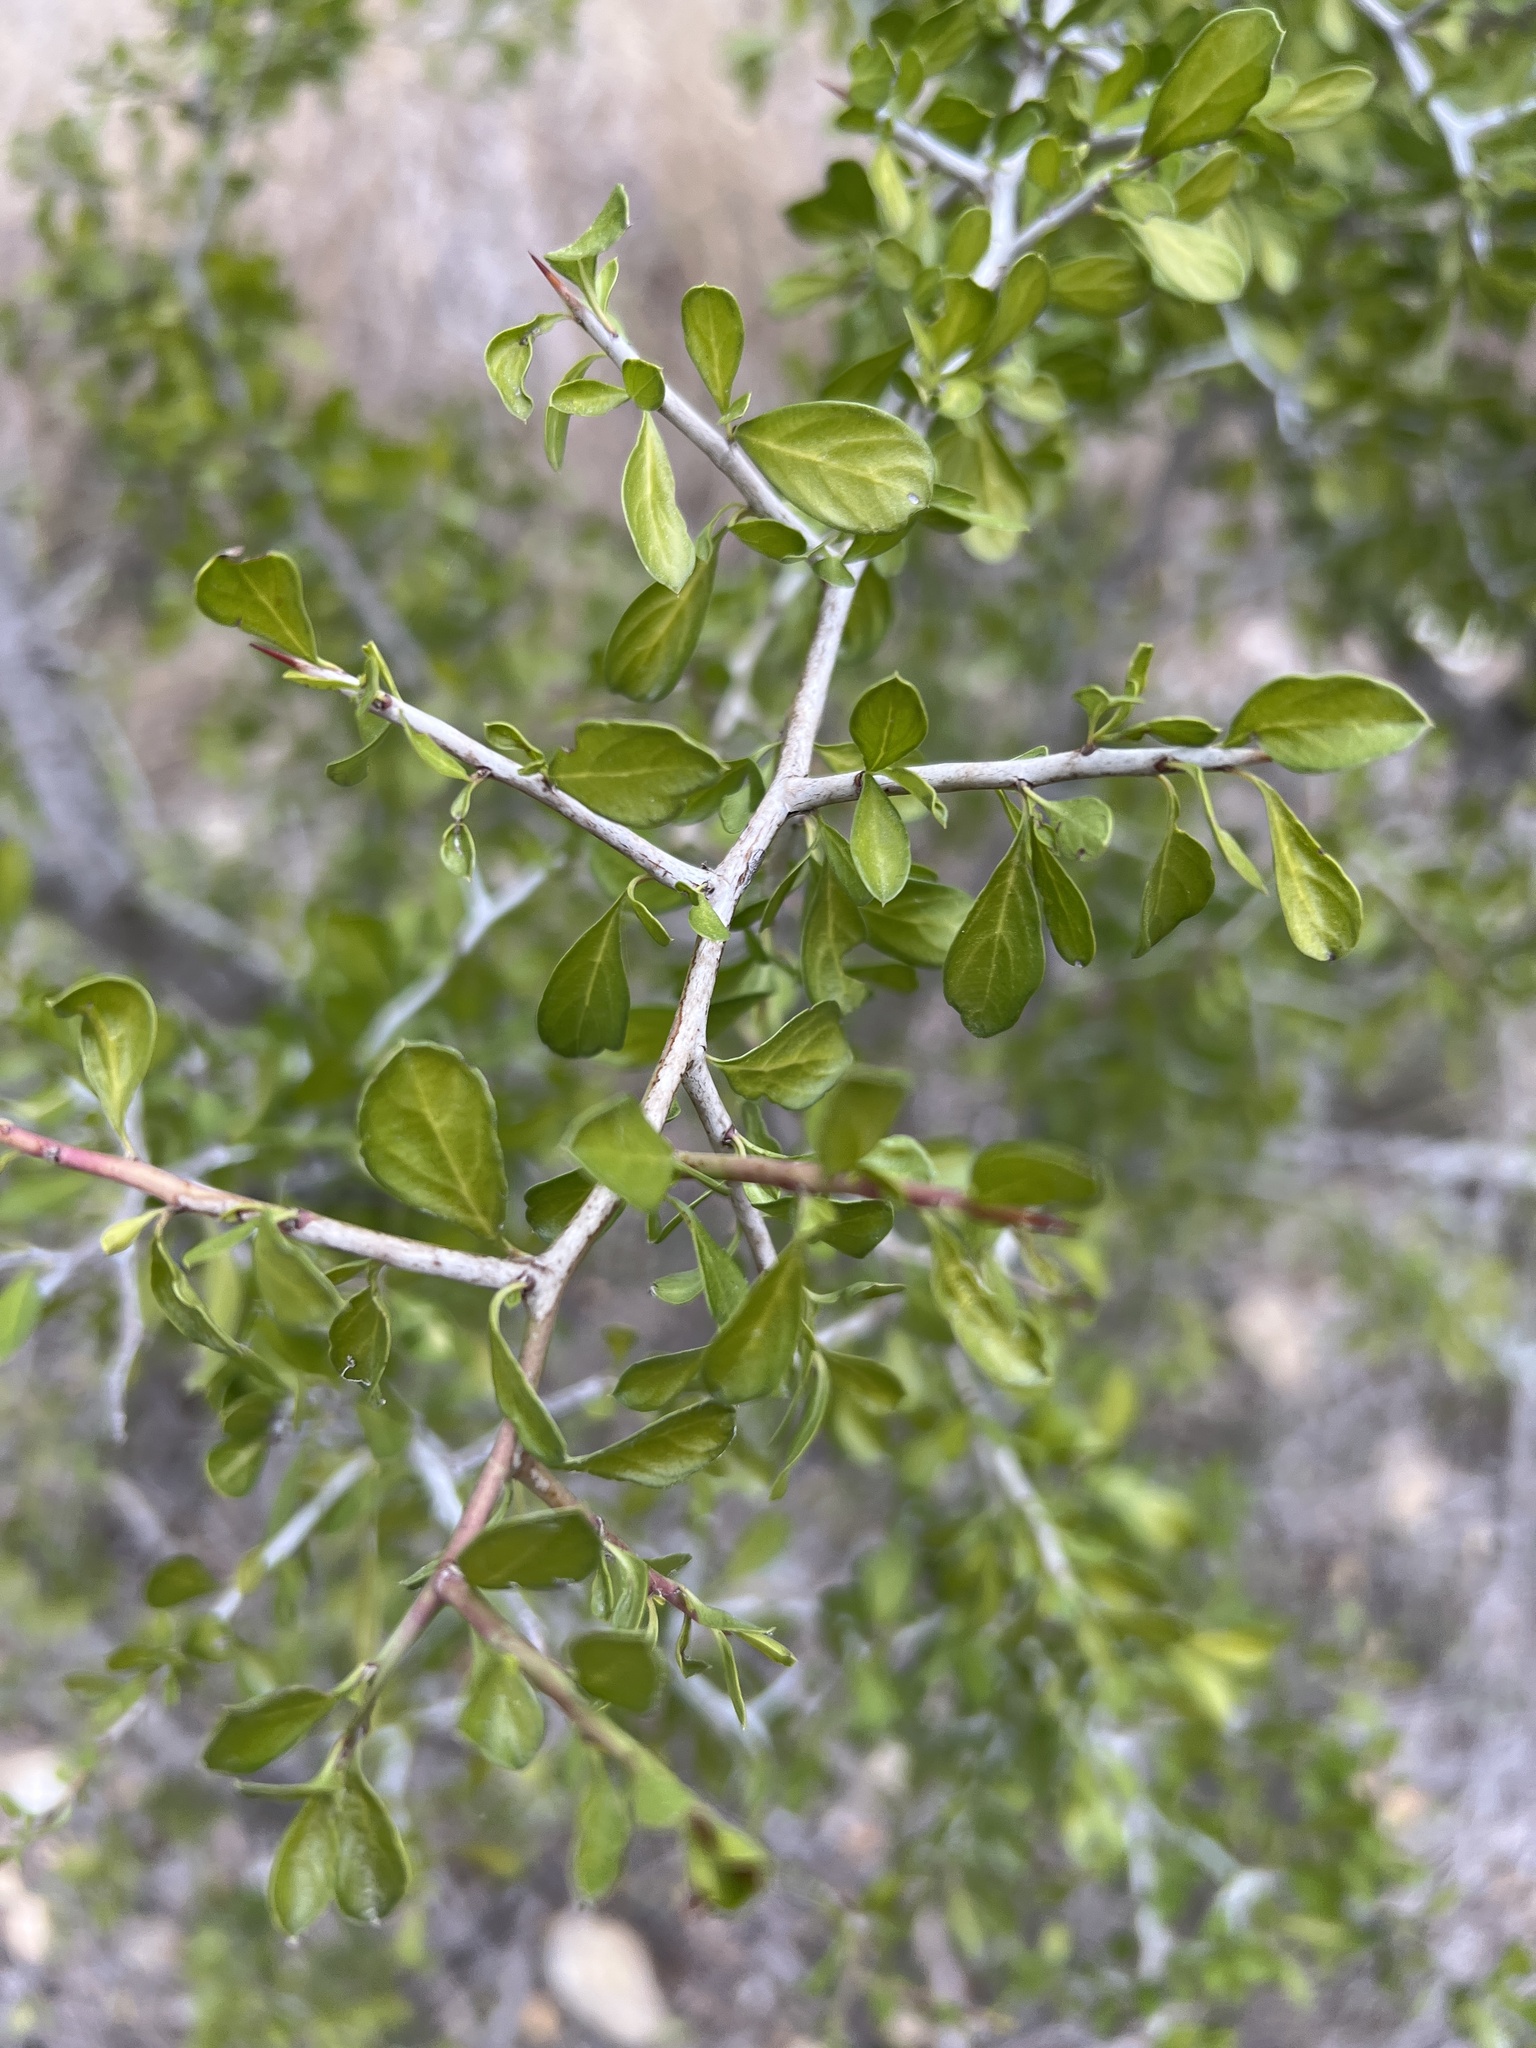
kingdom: Plantae
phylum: Tracheophyta
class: Magnoliopsida
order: Rosales
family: Rhamnaceae
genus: Condalia
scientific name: Condalia hookeri
